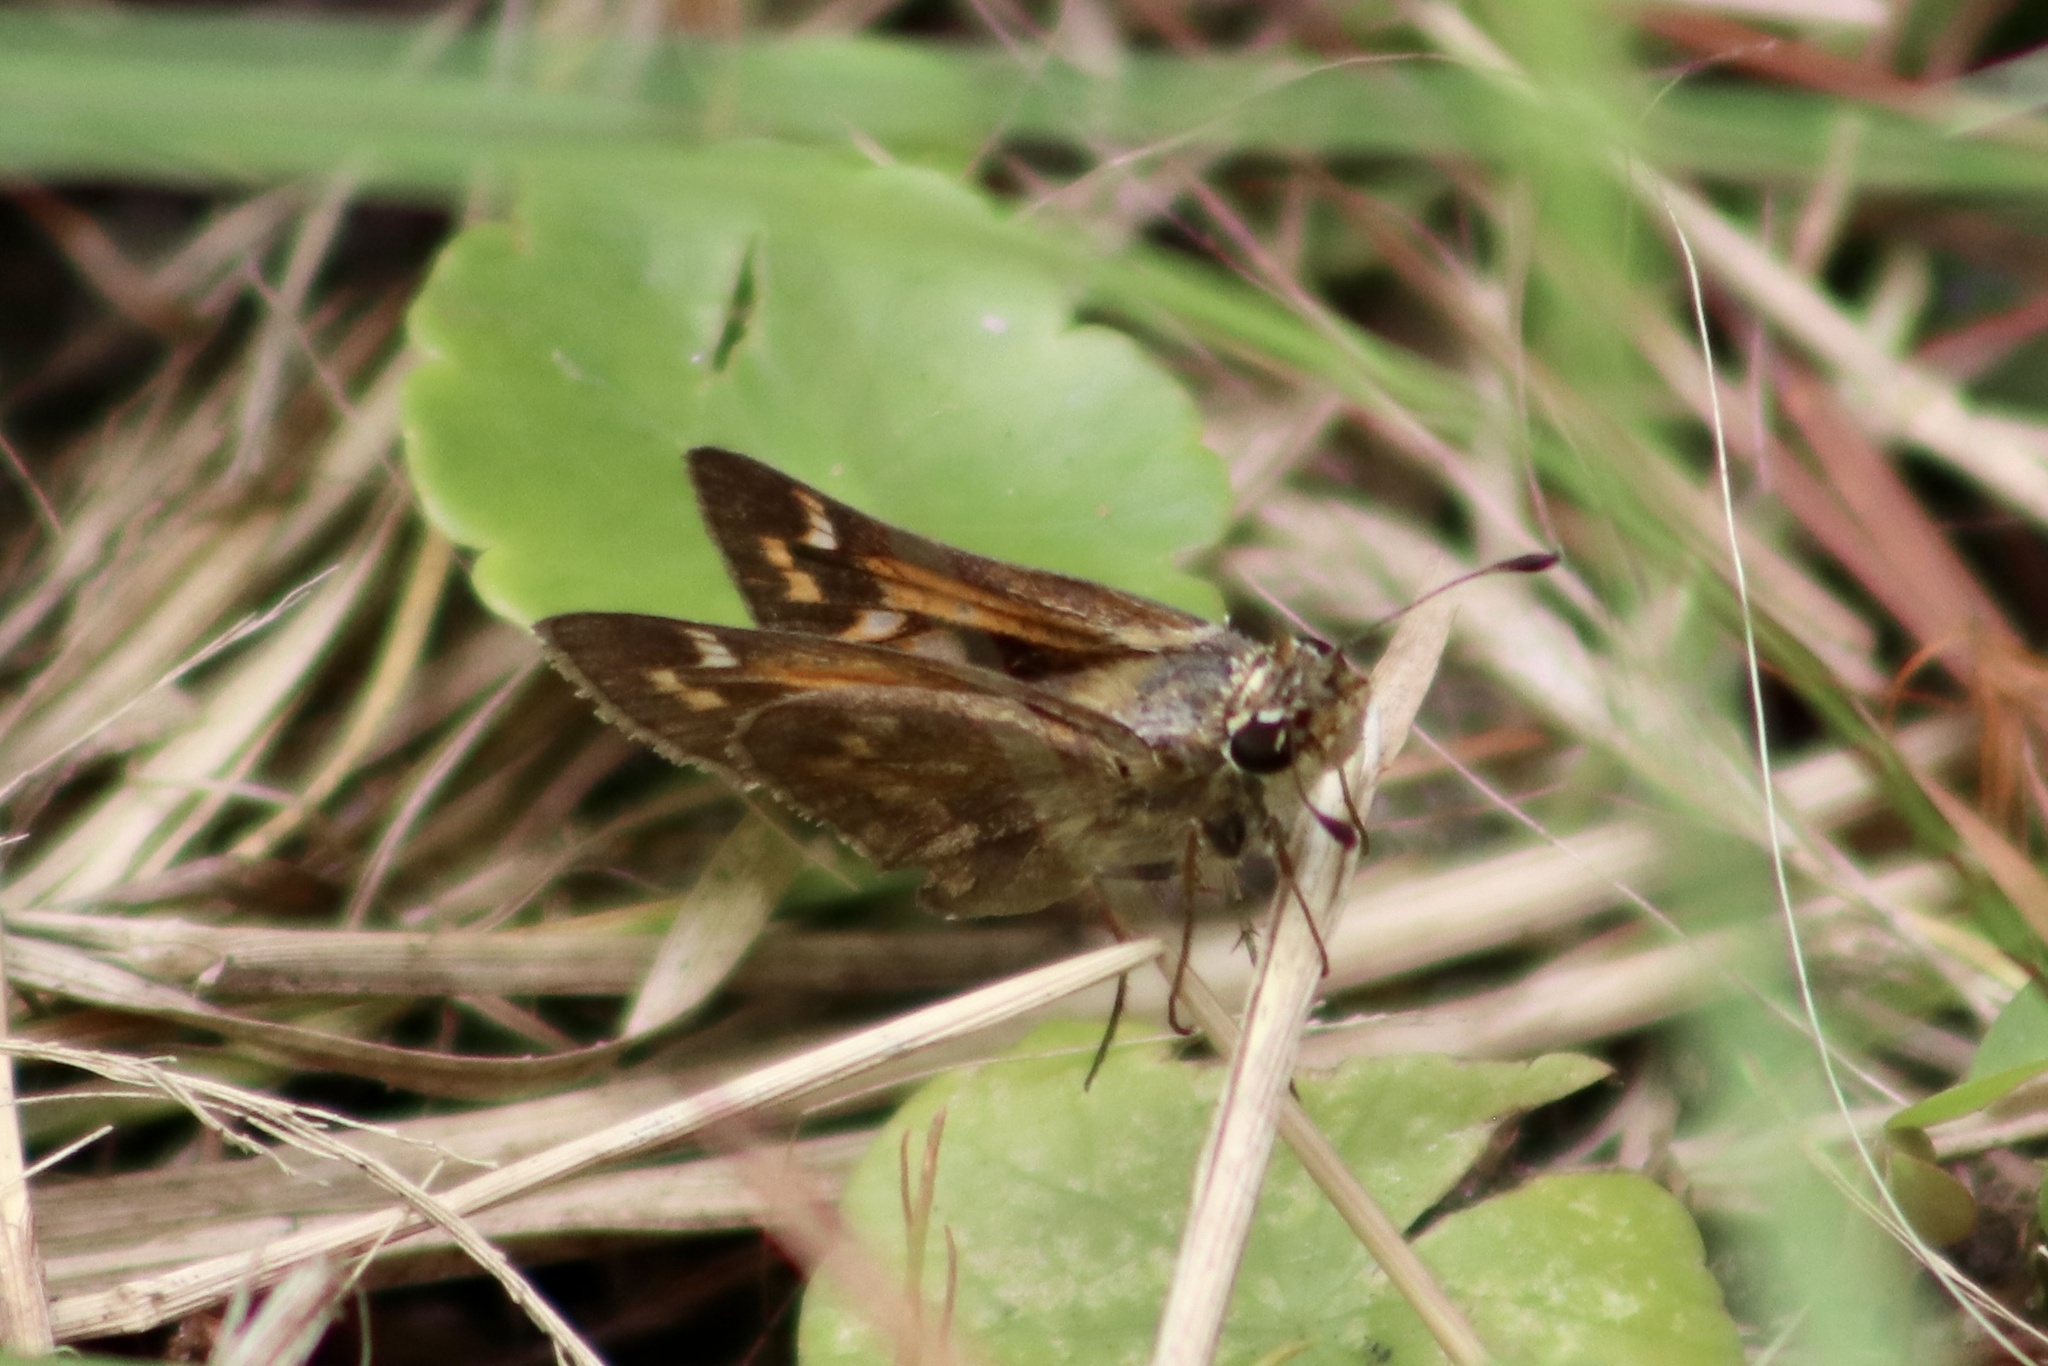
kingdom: Animalia
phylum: Arthropoda
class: Insecta
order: Lepidoptera
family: Hesperiidae
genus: Atalopedes
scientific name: Atalopedes
